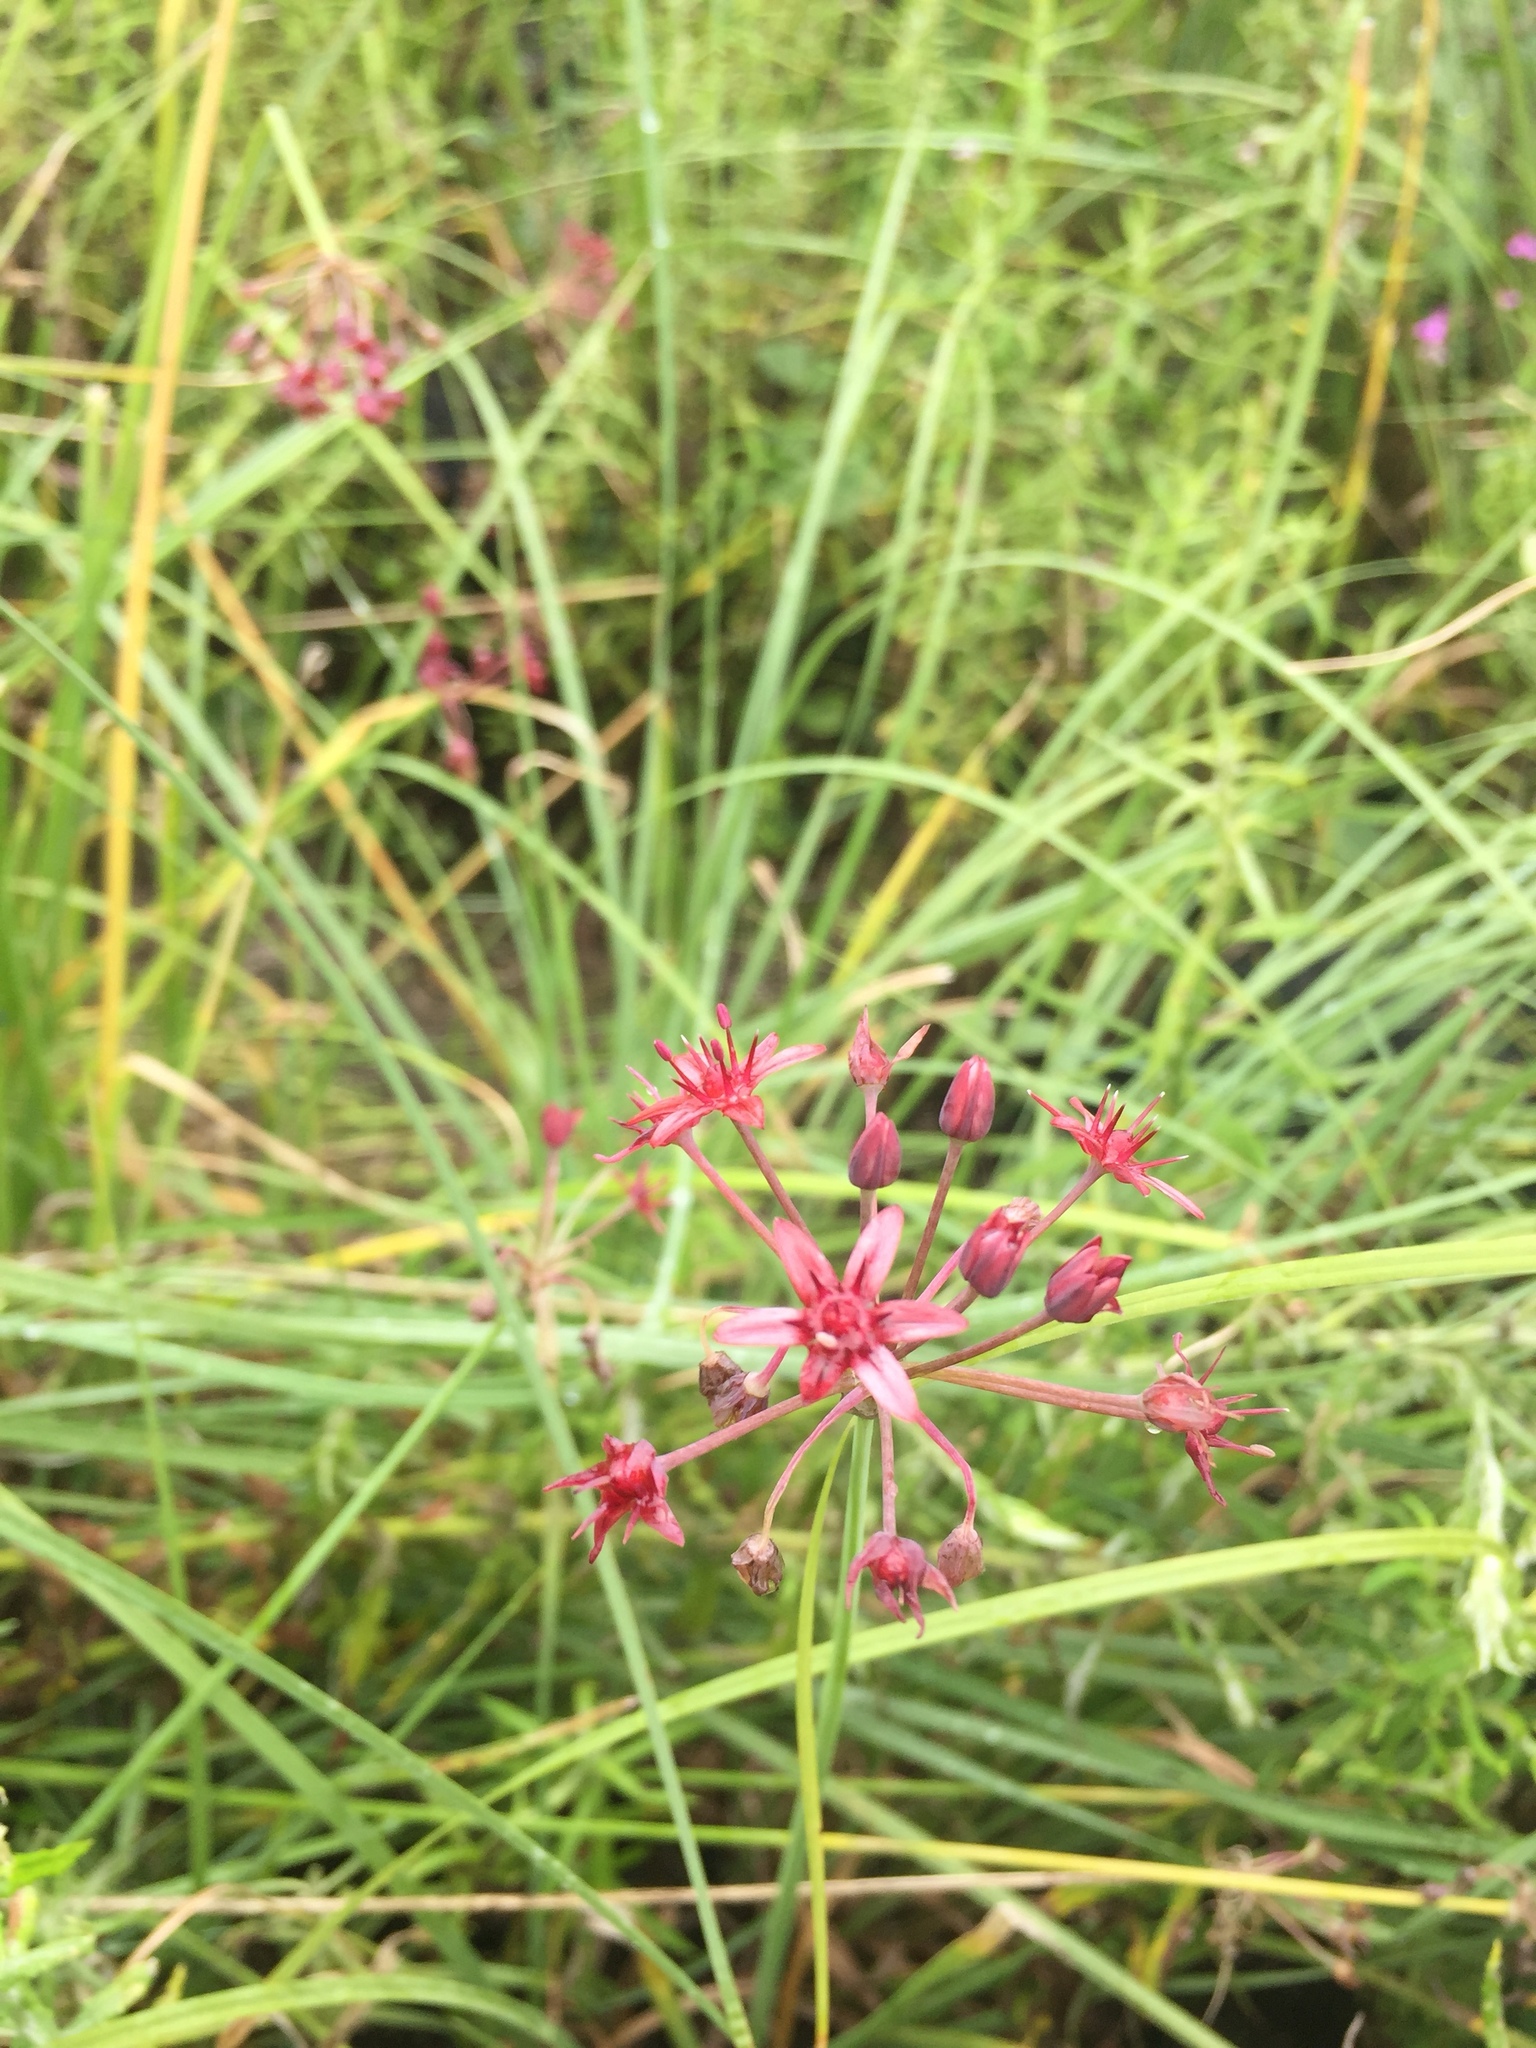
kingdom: Plantae
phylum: Tracheophyta
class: Liliopsida
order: Asparagales
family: Amaryllidaceae
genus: Allium
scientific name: Allium glandulosum
